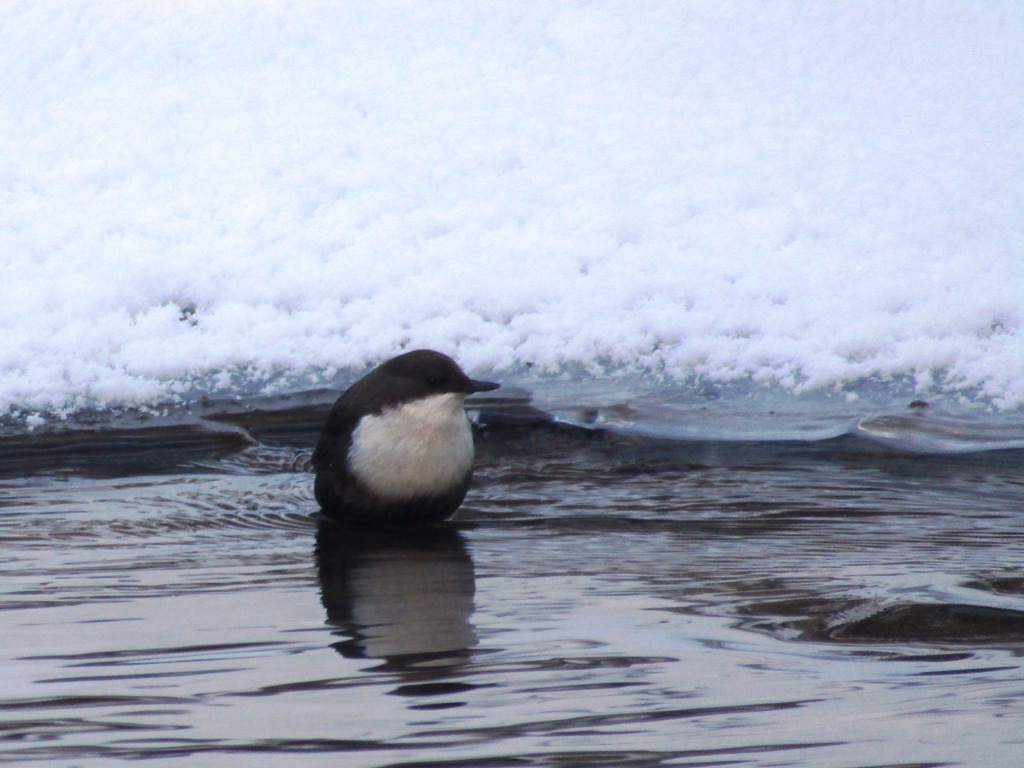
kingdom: Animalia
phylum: Chordata
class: Aves
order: Passeriformes
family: Cinclidae
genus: Cinclus
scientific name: Cinclus cinclus
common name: White-throated dipper
